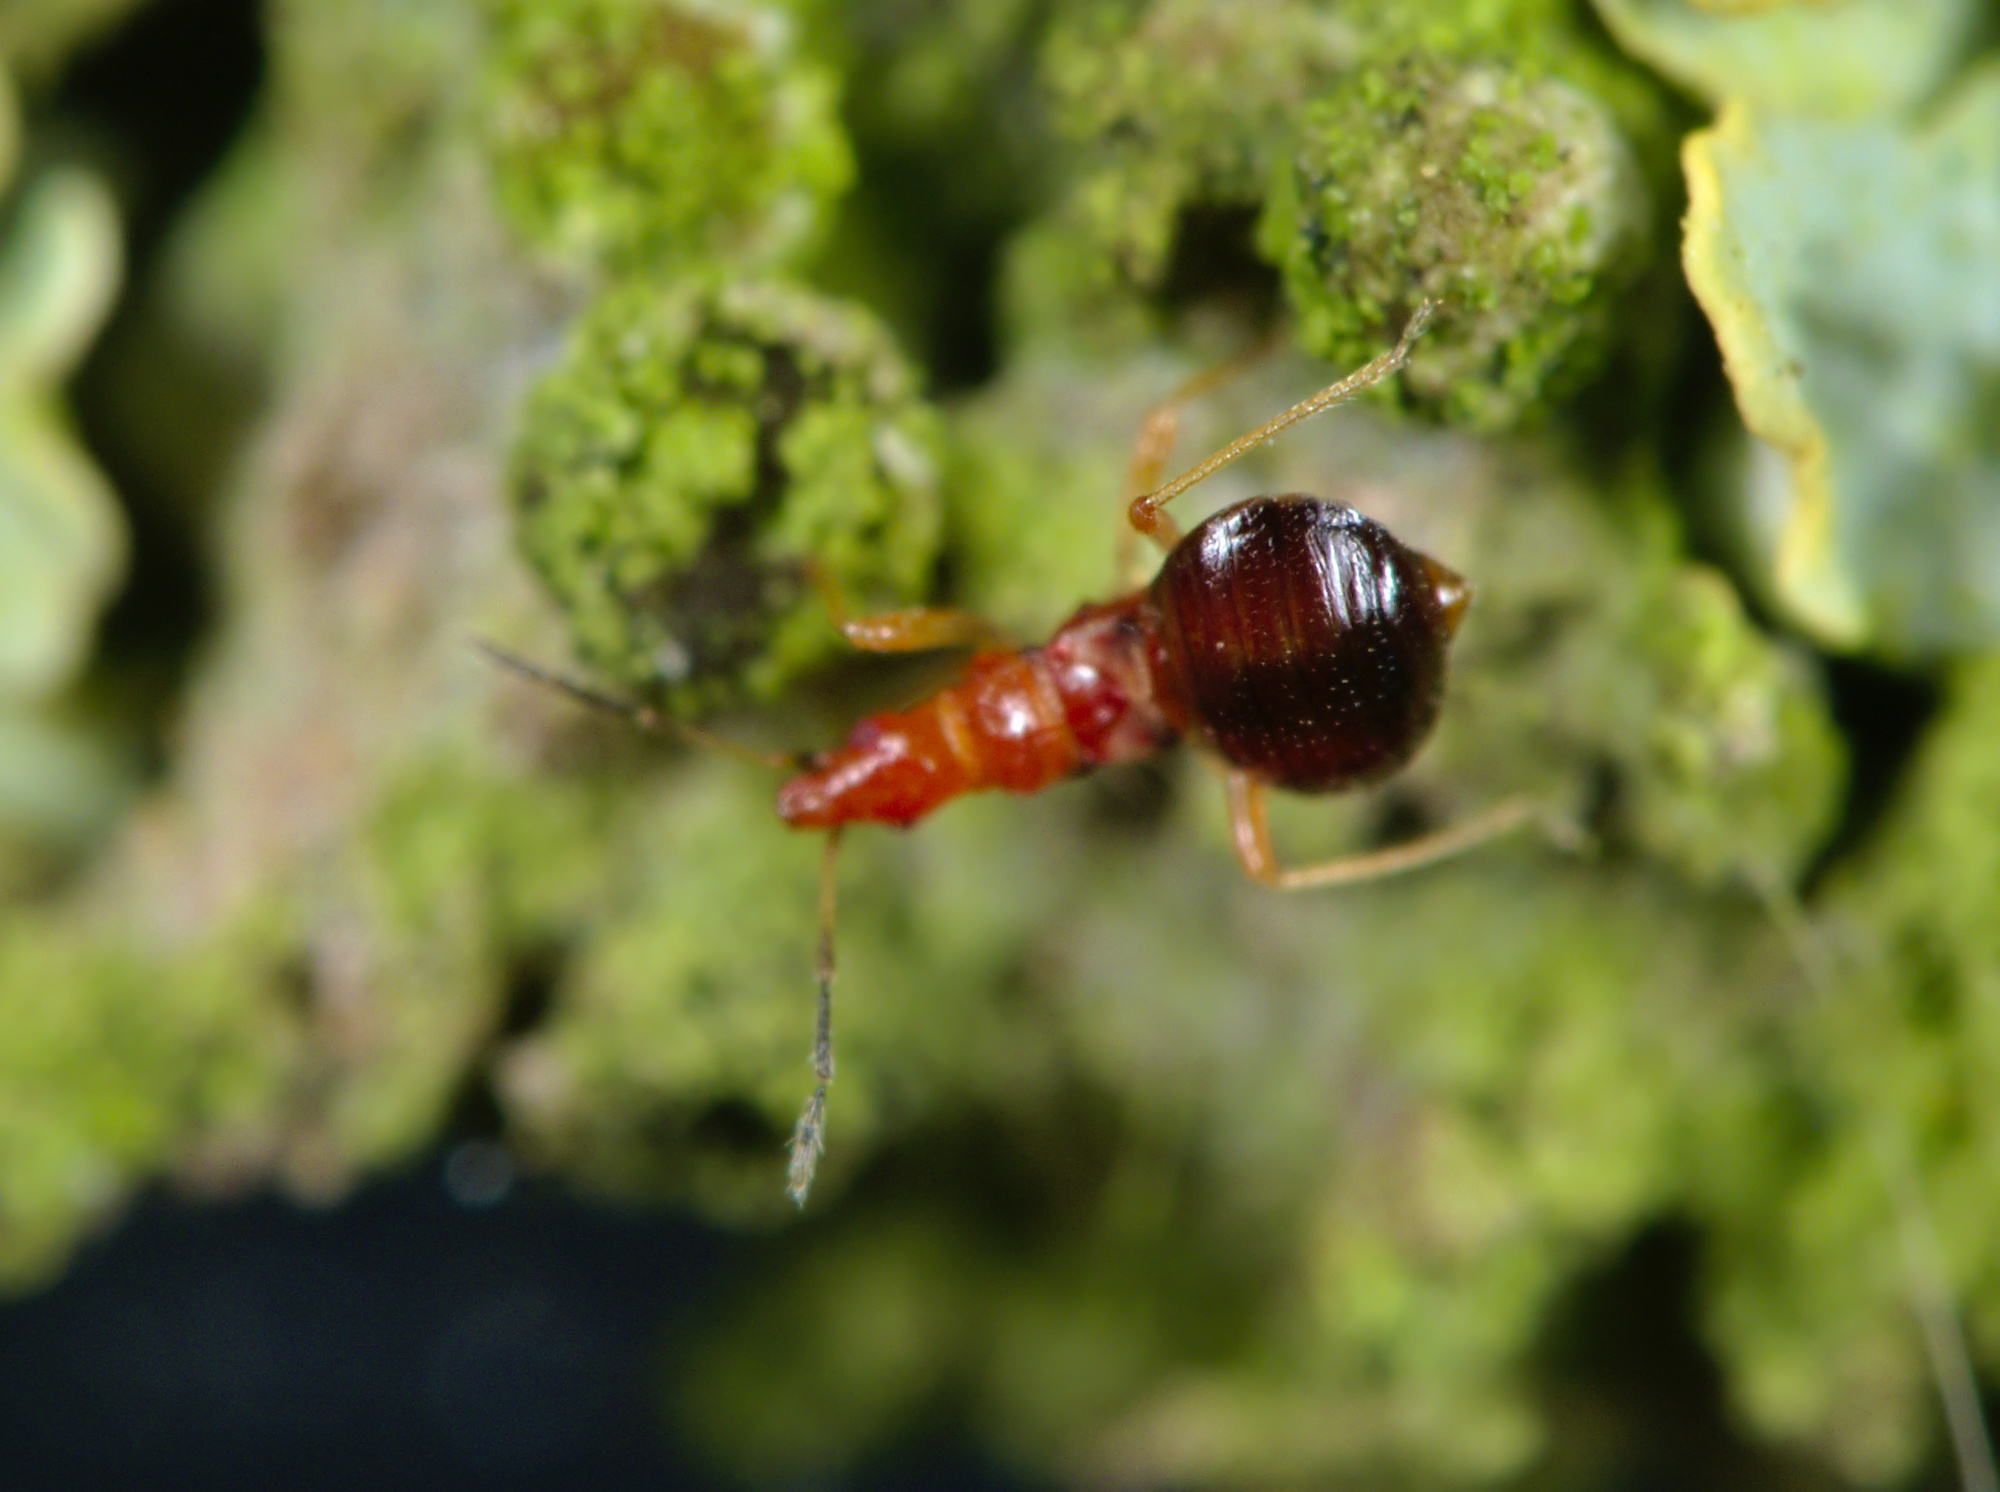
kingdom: Animalia
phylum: Arthropoda
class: Insecta
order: Hemiptera
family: Microphysidae
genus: Loricula
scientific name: Loricula elegantula
